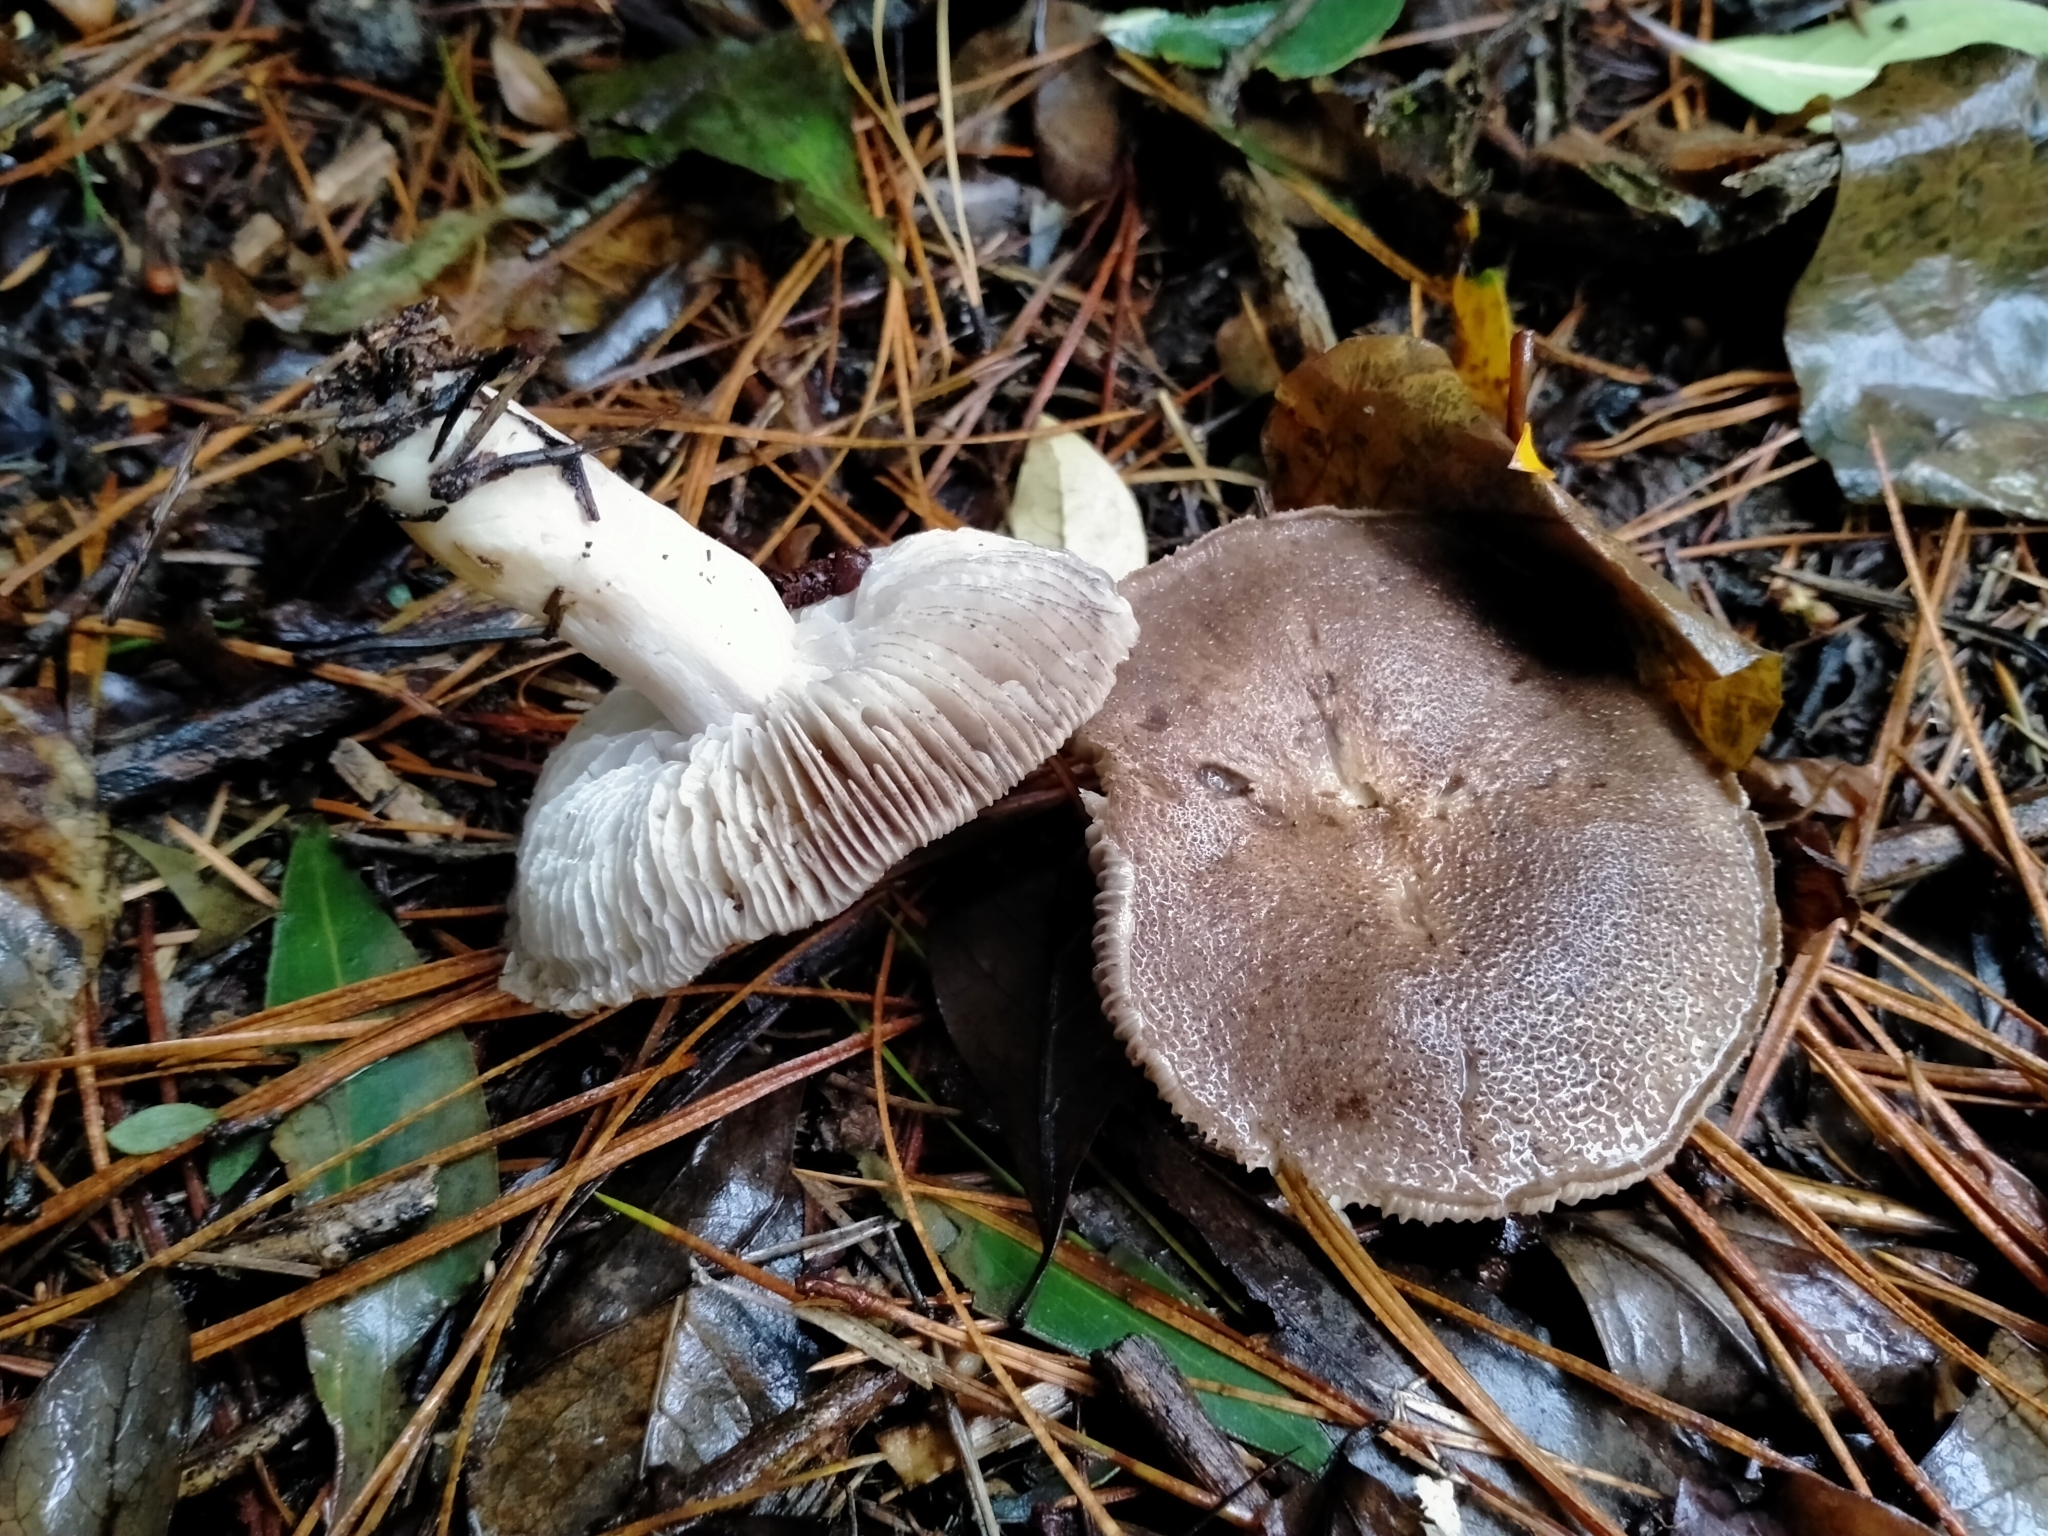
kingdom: Fungi
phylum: Basidiomycota
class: Agaricomycetes
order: Agaricales
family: Tricholomataceae
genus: Tricholoma
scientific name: Tricholoma terreum
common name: Grey knight
